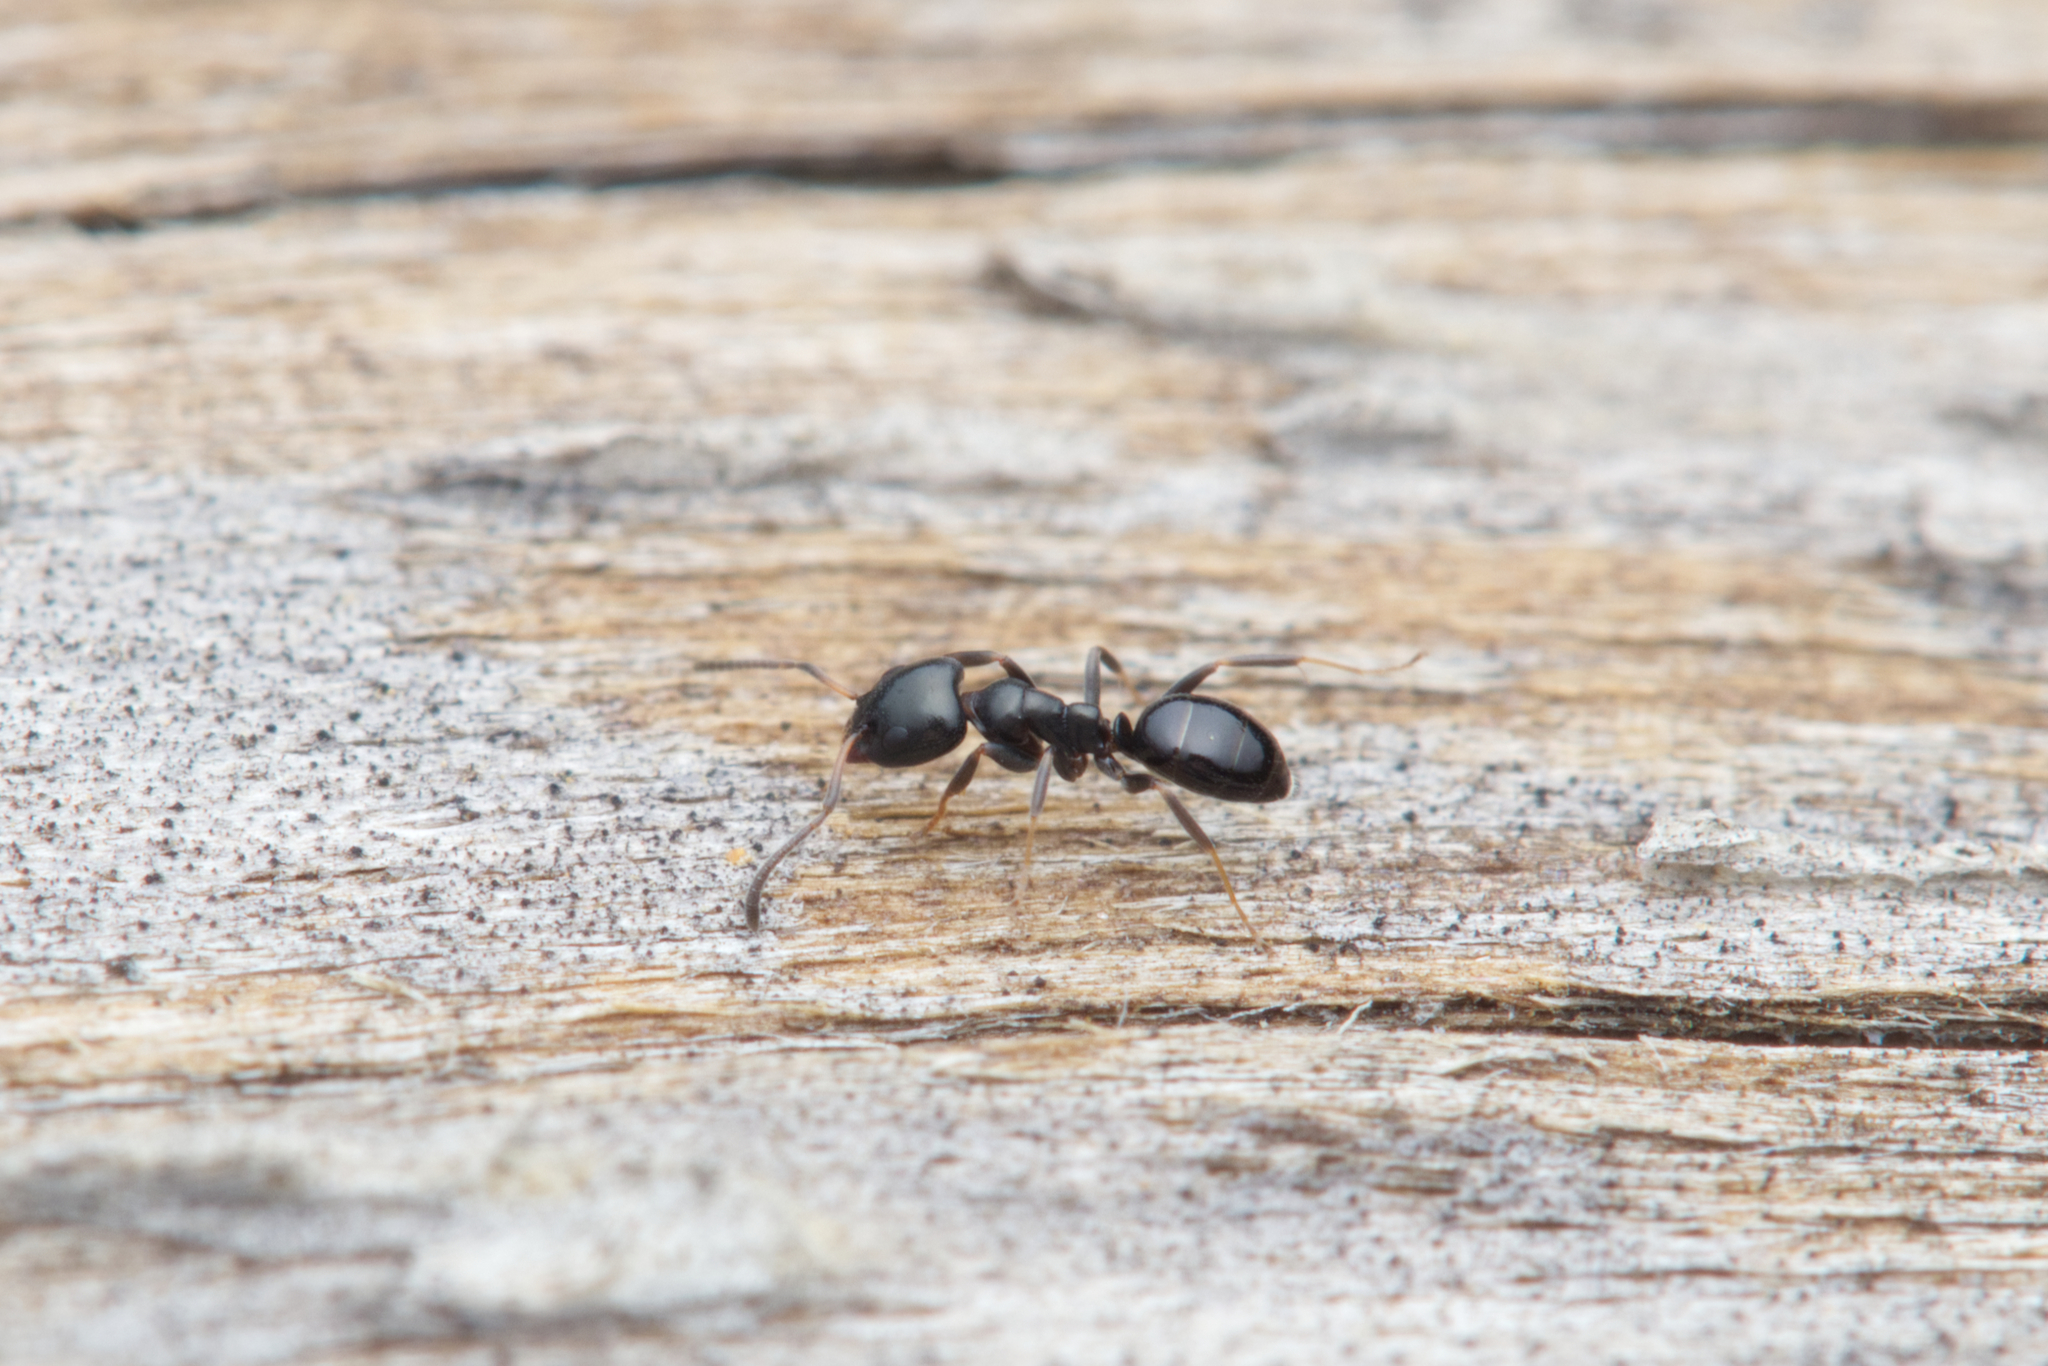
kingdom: Animalia
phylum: Arthropoda
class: Insecta
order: Hymenoptera
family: Formicidae
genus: Ochetellus
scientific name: Ochetellus glaber
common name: Ant
